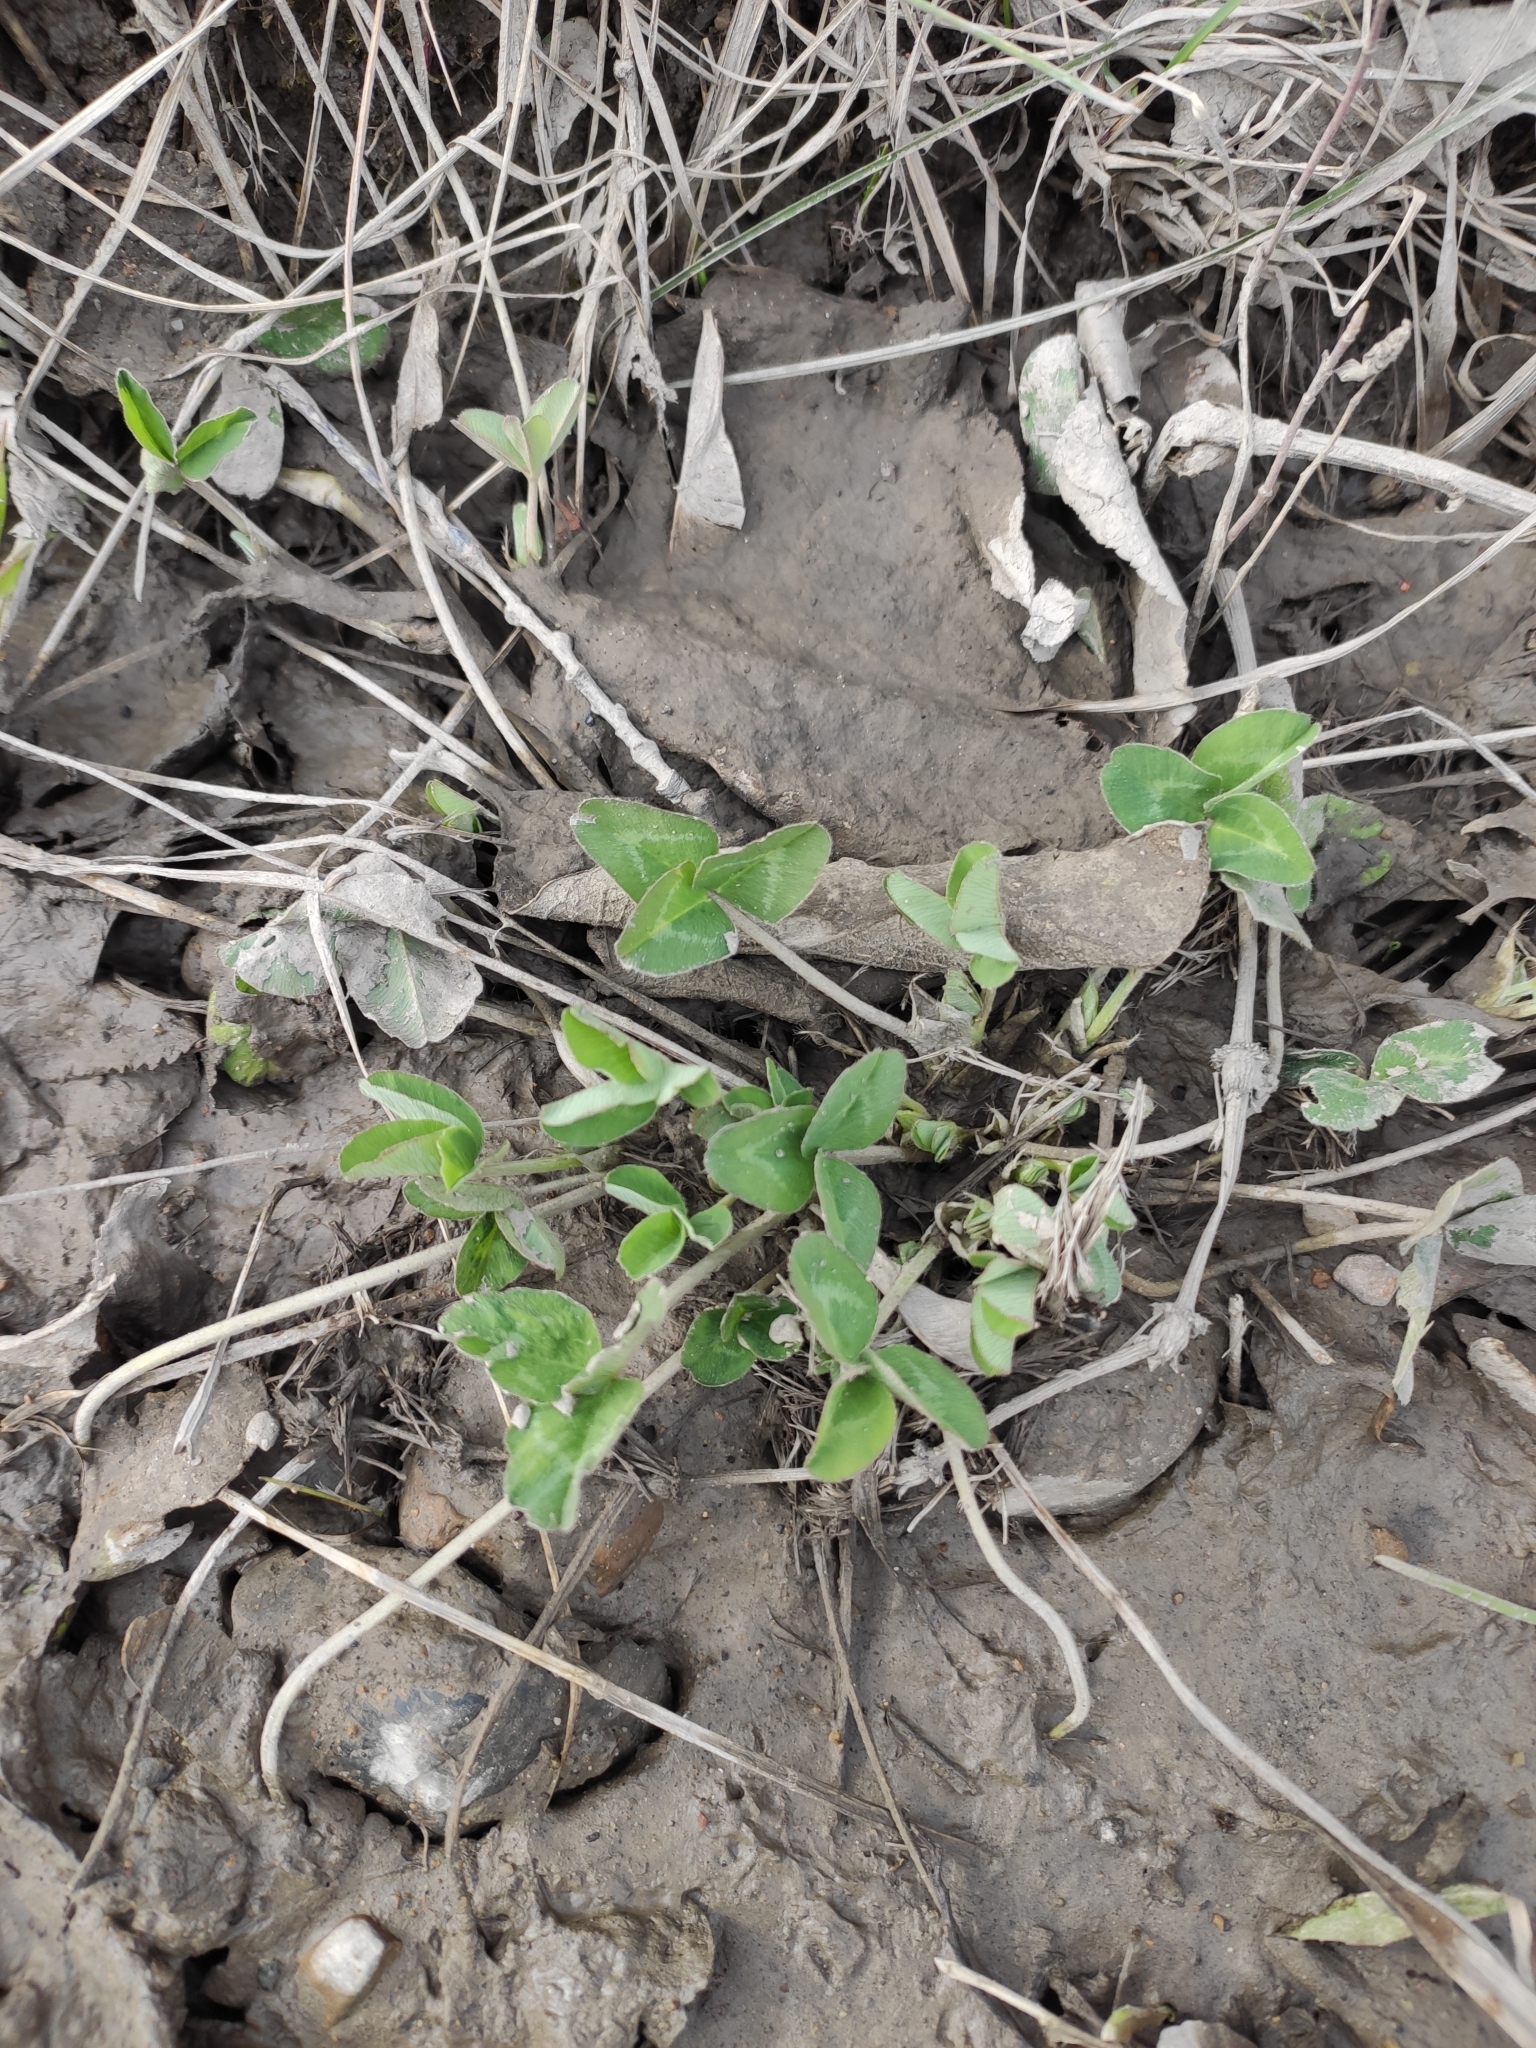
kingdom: Plantae
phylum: Tracheophyta
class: Magnoliopsida
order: Fabales
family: Fabaceae
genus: Trifolium
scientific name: Trifolium pratense
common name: Red clover
